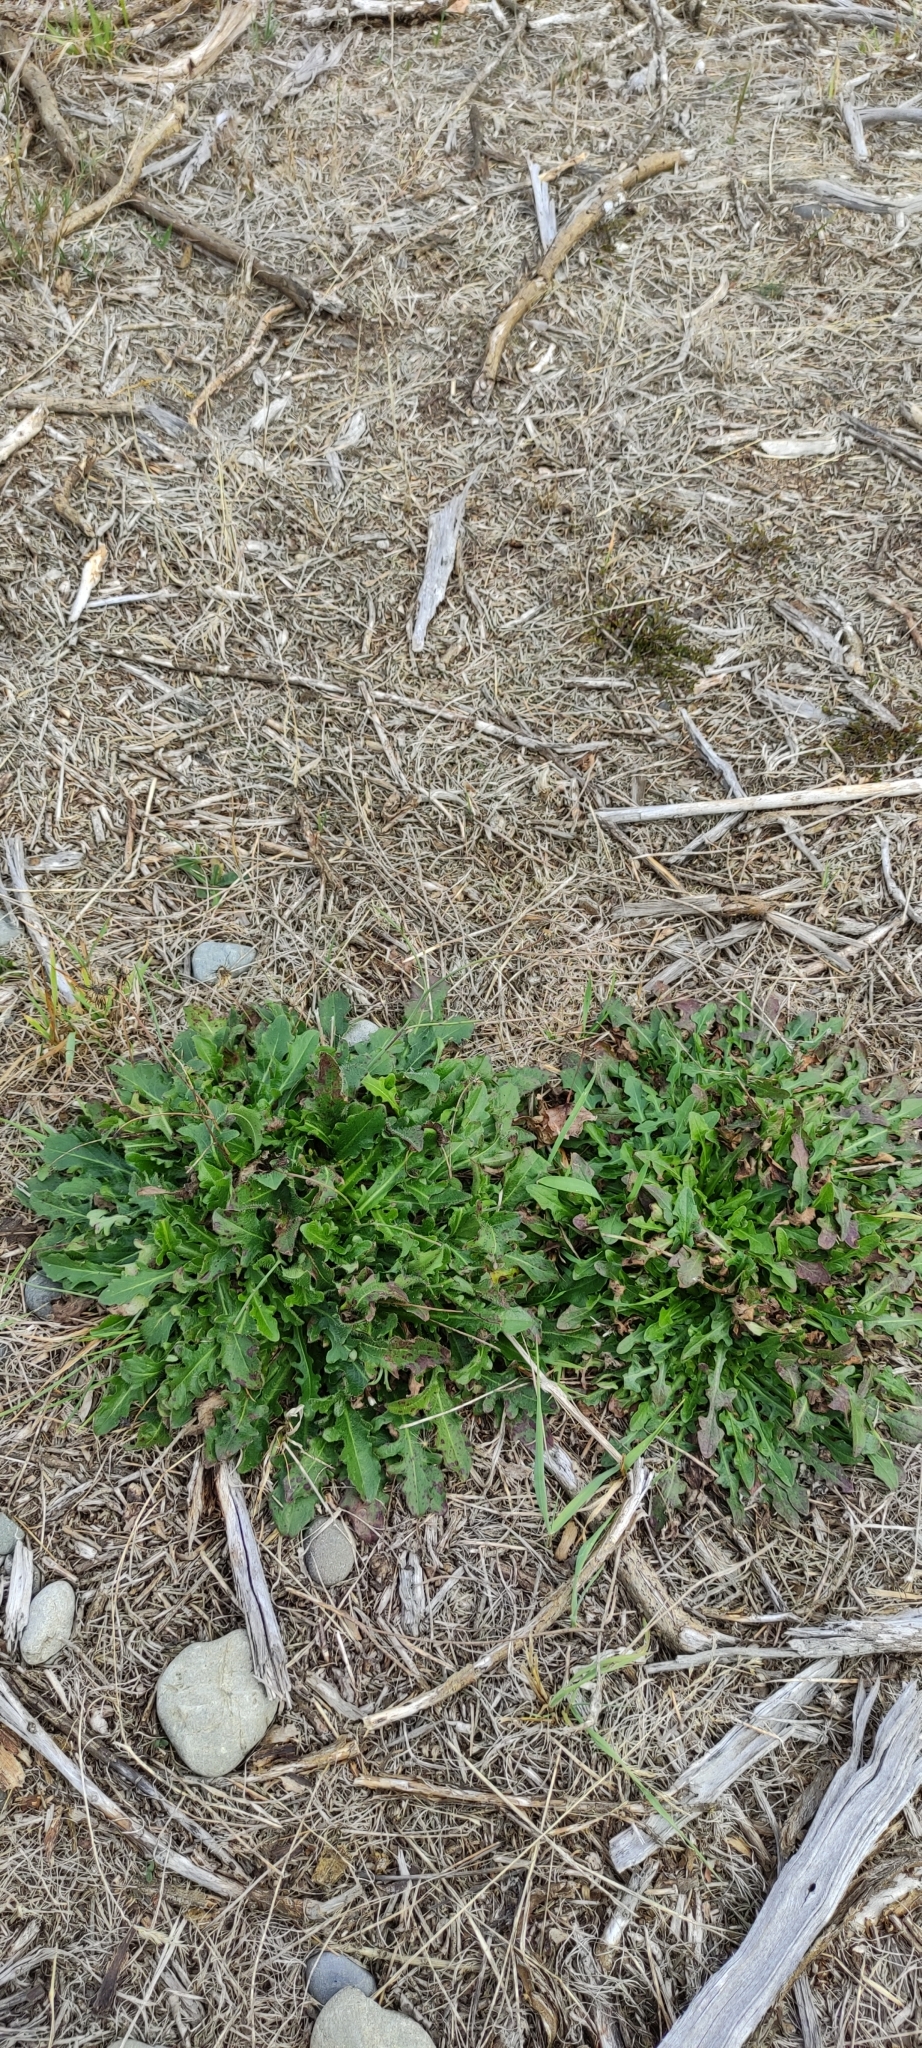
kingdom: Plantae
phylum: Tracheophyta
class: Magnoliopsida
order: Asterales
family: Asteraceae
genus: Hypochaeris
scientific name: Hypochaeris radicata
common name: Flatweed
